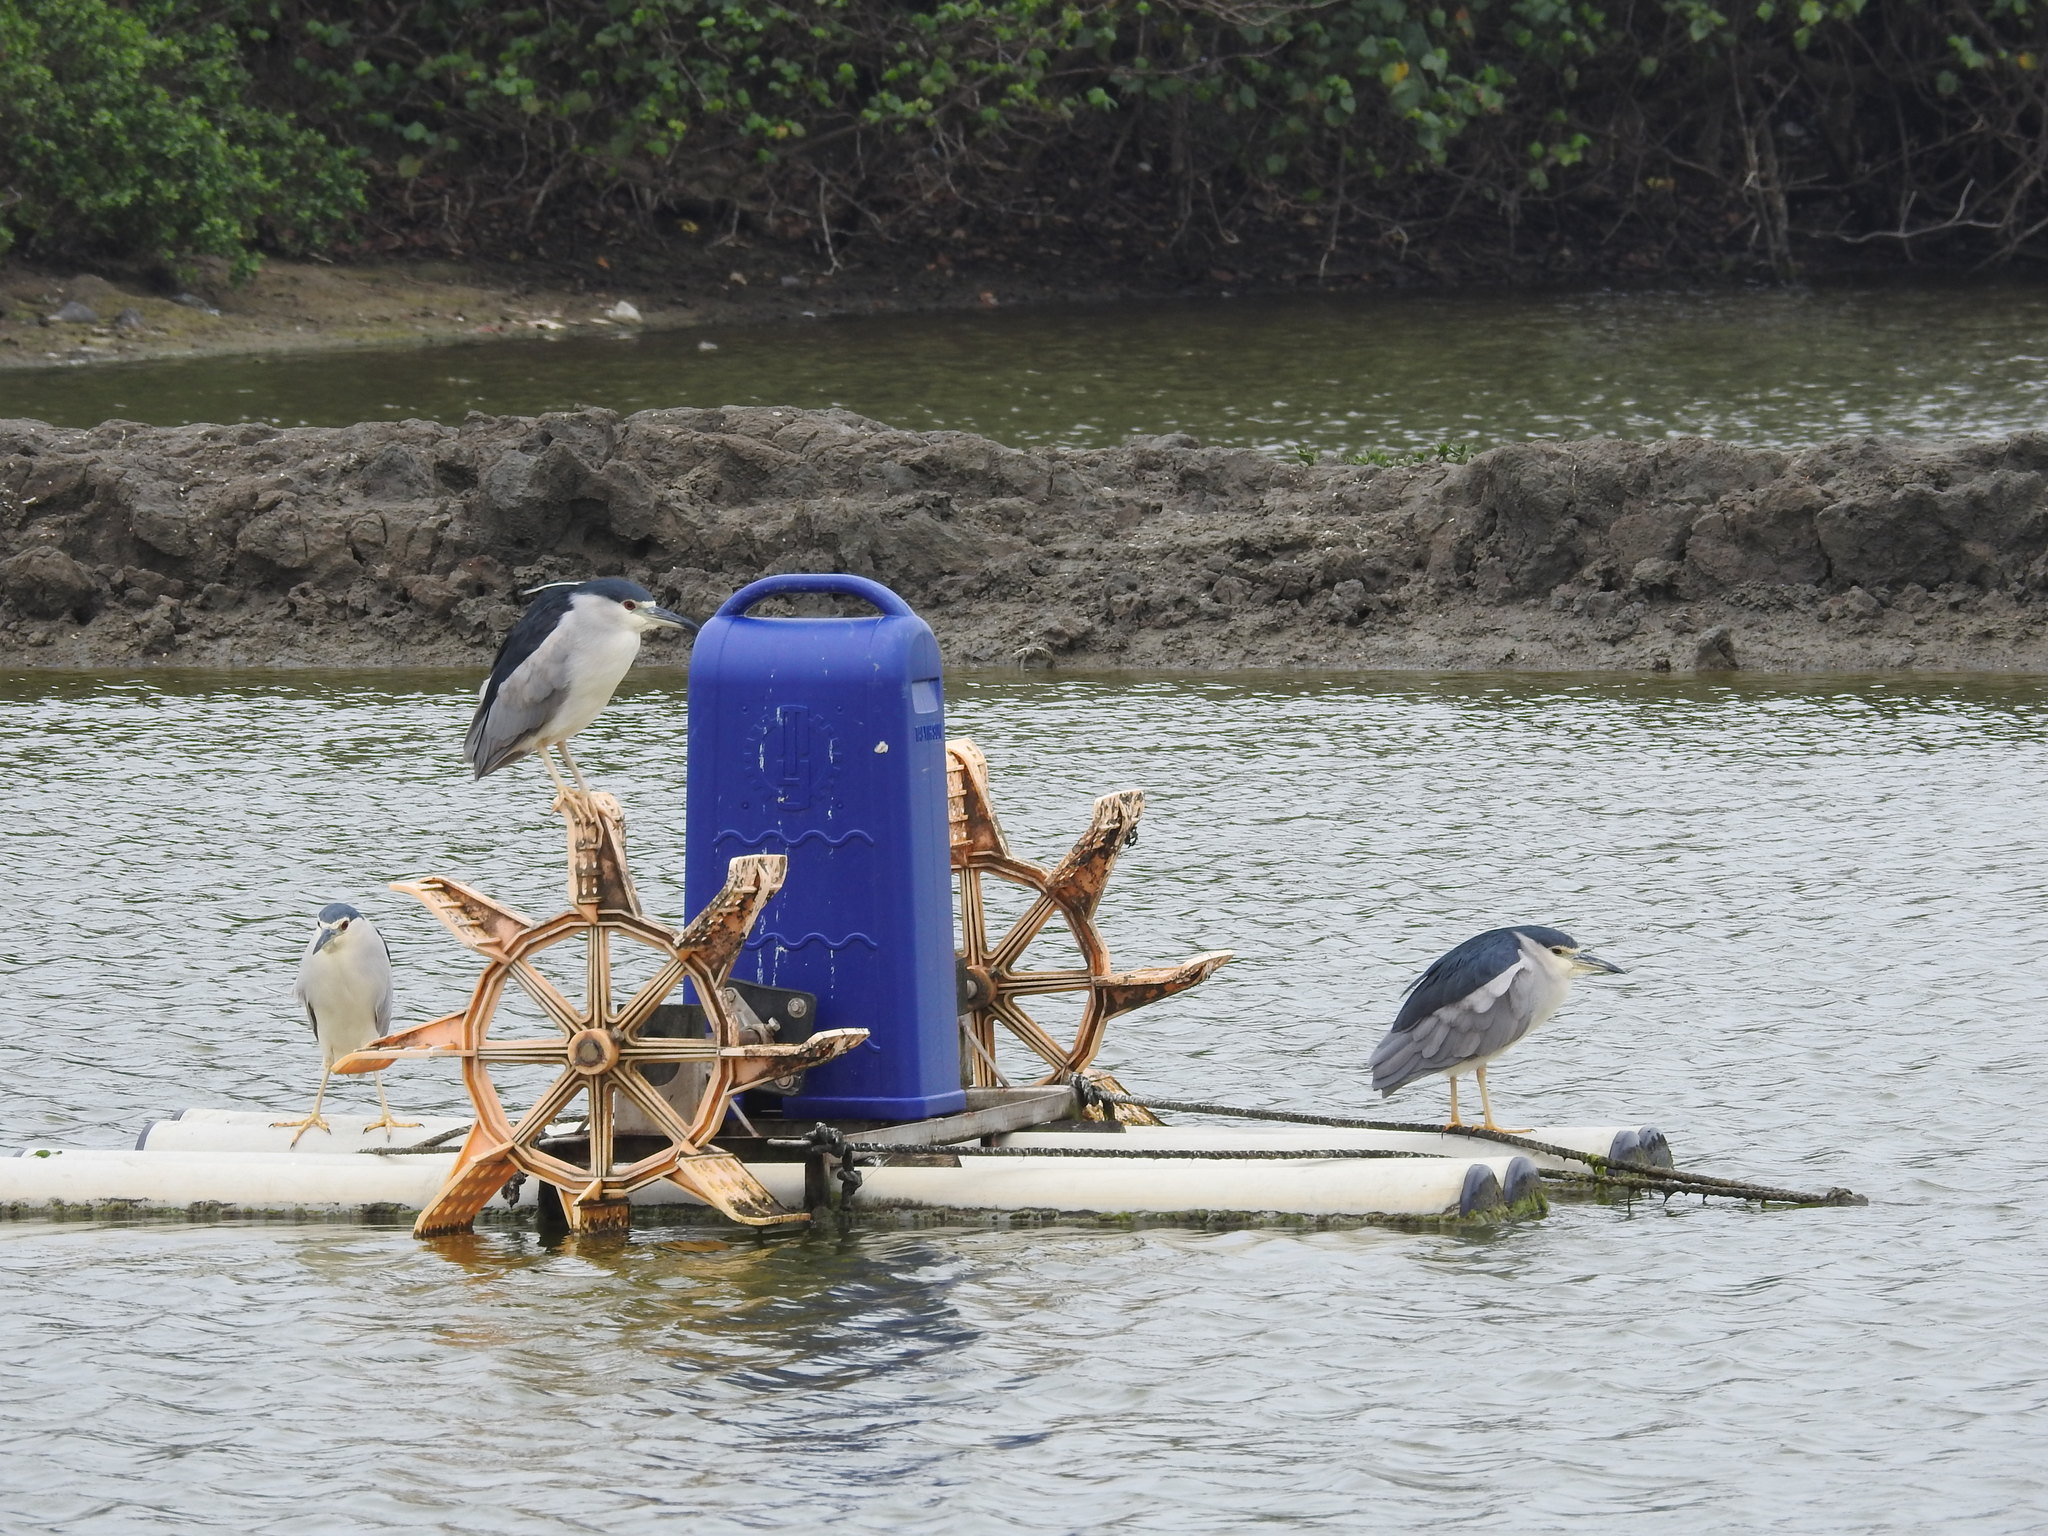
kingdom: Animalia
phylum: Chordata
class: Aves
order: Pelecaniformes
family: Ardeidae
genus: Nycticorax
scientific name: Nycticorax nycticorax
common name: Black-crowned night heron
